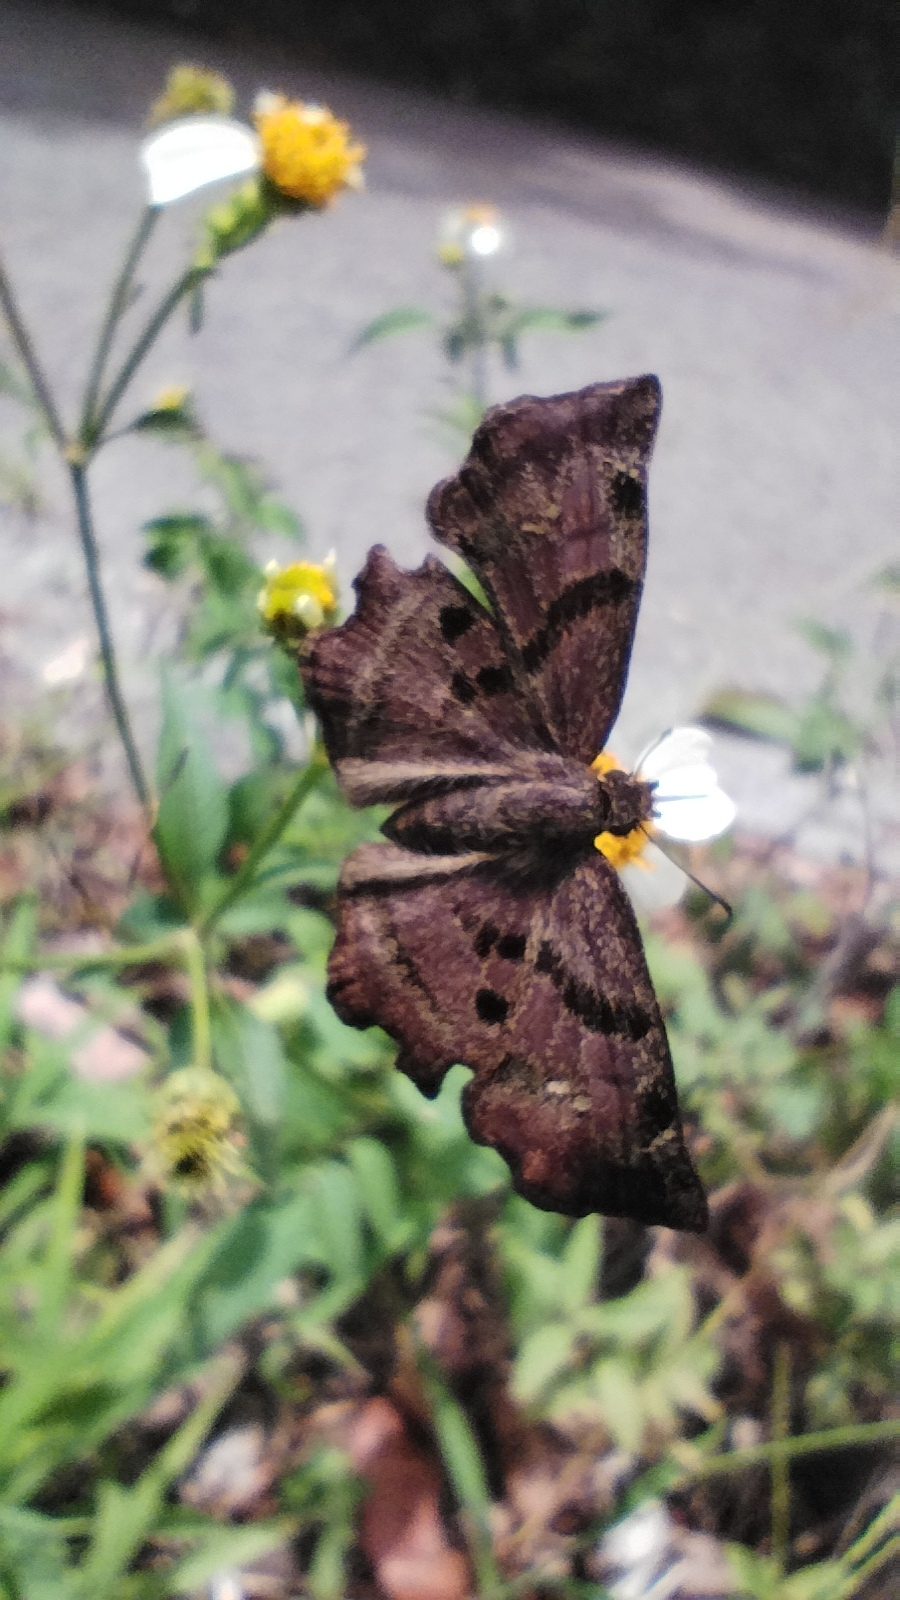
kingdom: Animalia
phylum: Arthropoda
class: Insecta
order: Lepidoptera
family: Hesperiidae
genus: Systaspes
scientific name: Systaspes
